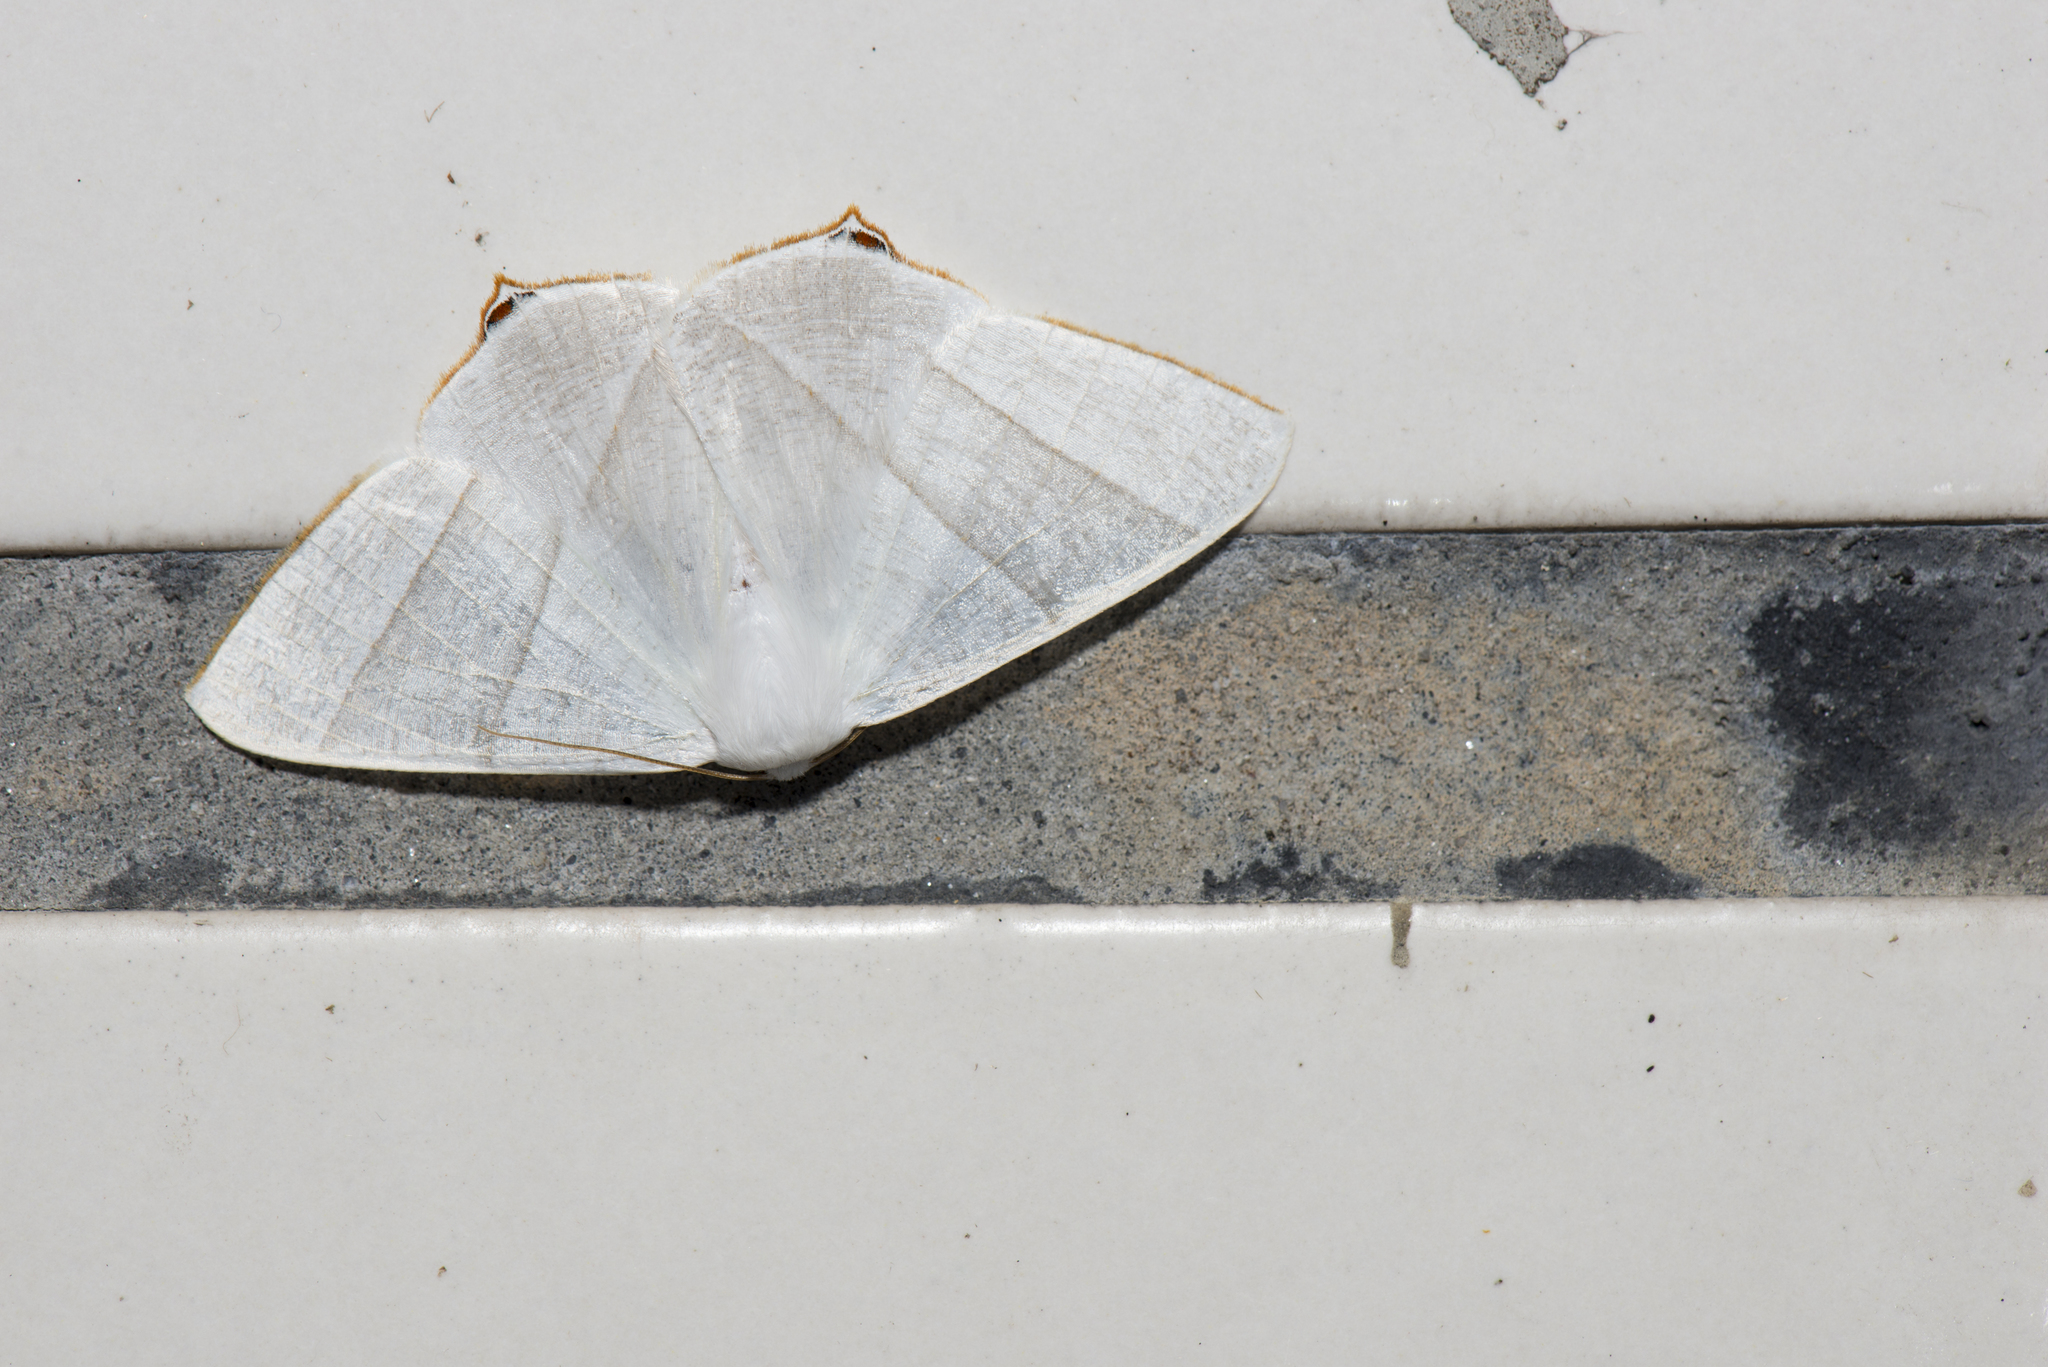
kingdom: Animalia
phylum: Arthropoda
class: Insecta
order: Lepidoptera
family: Geometridae
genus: Ourapteryx
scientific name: Ourapteryx caecata
